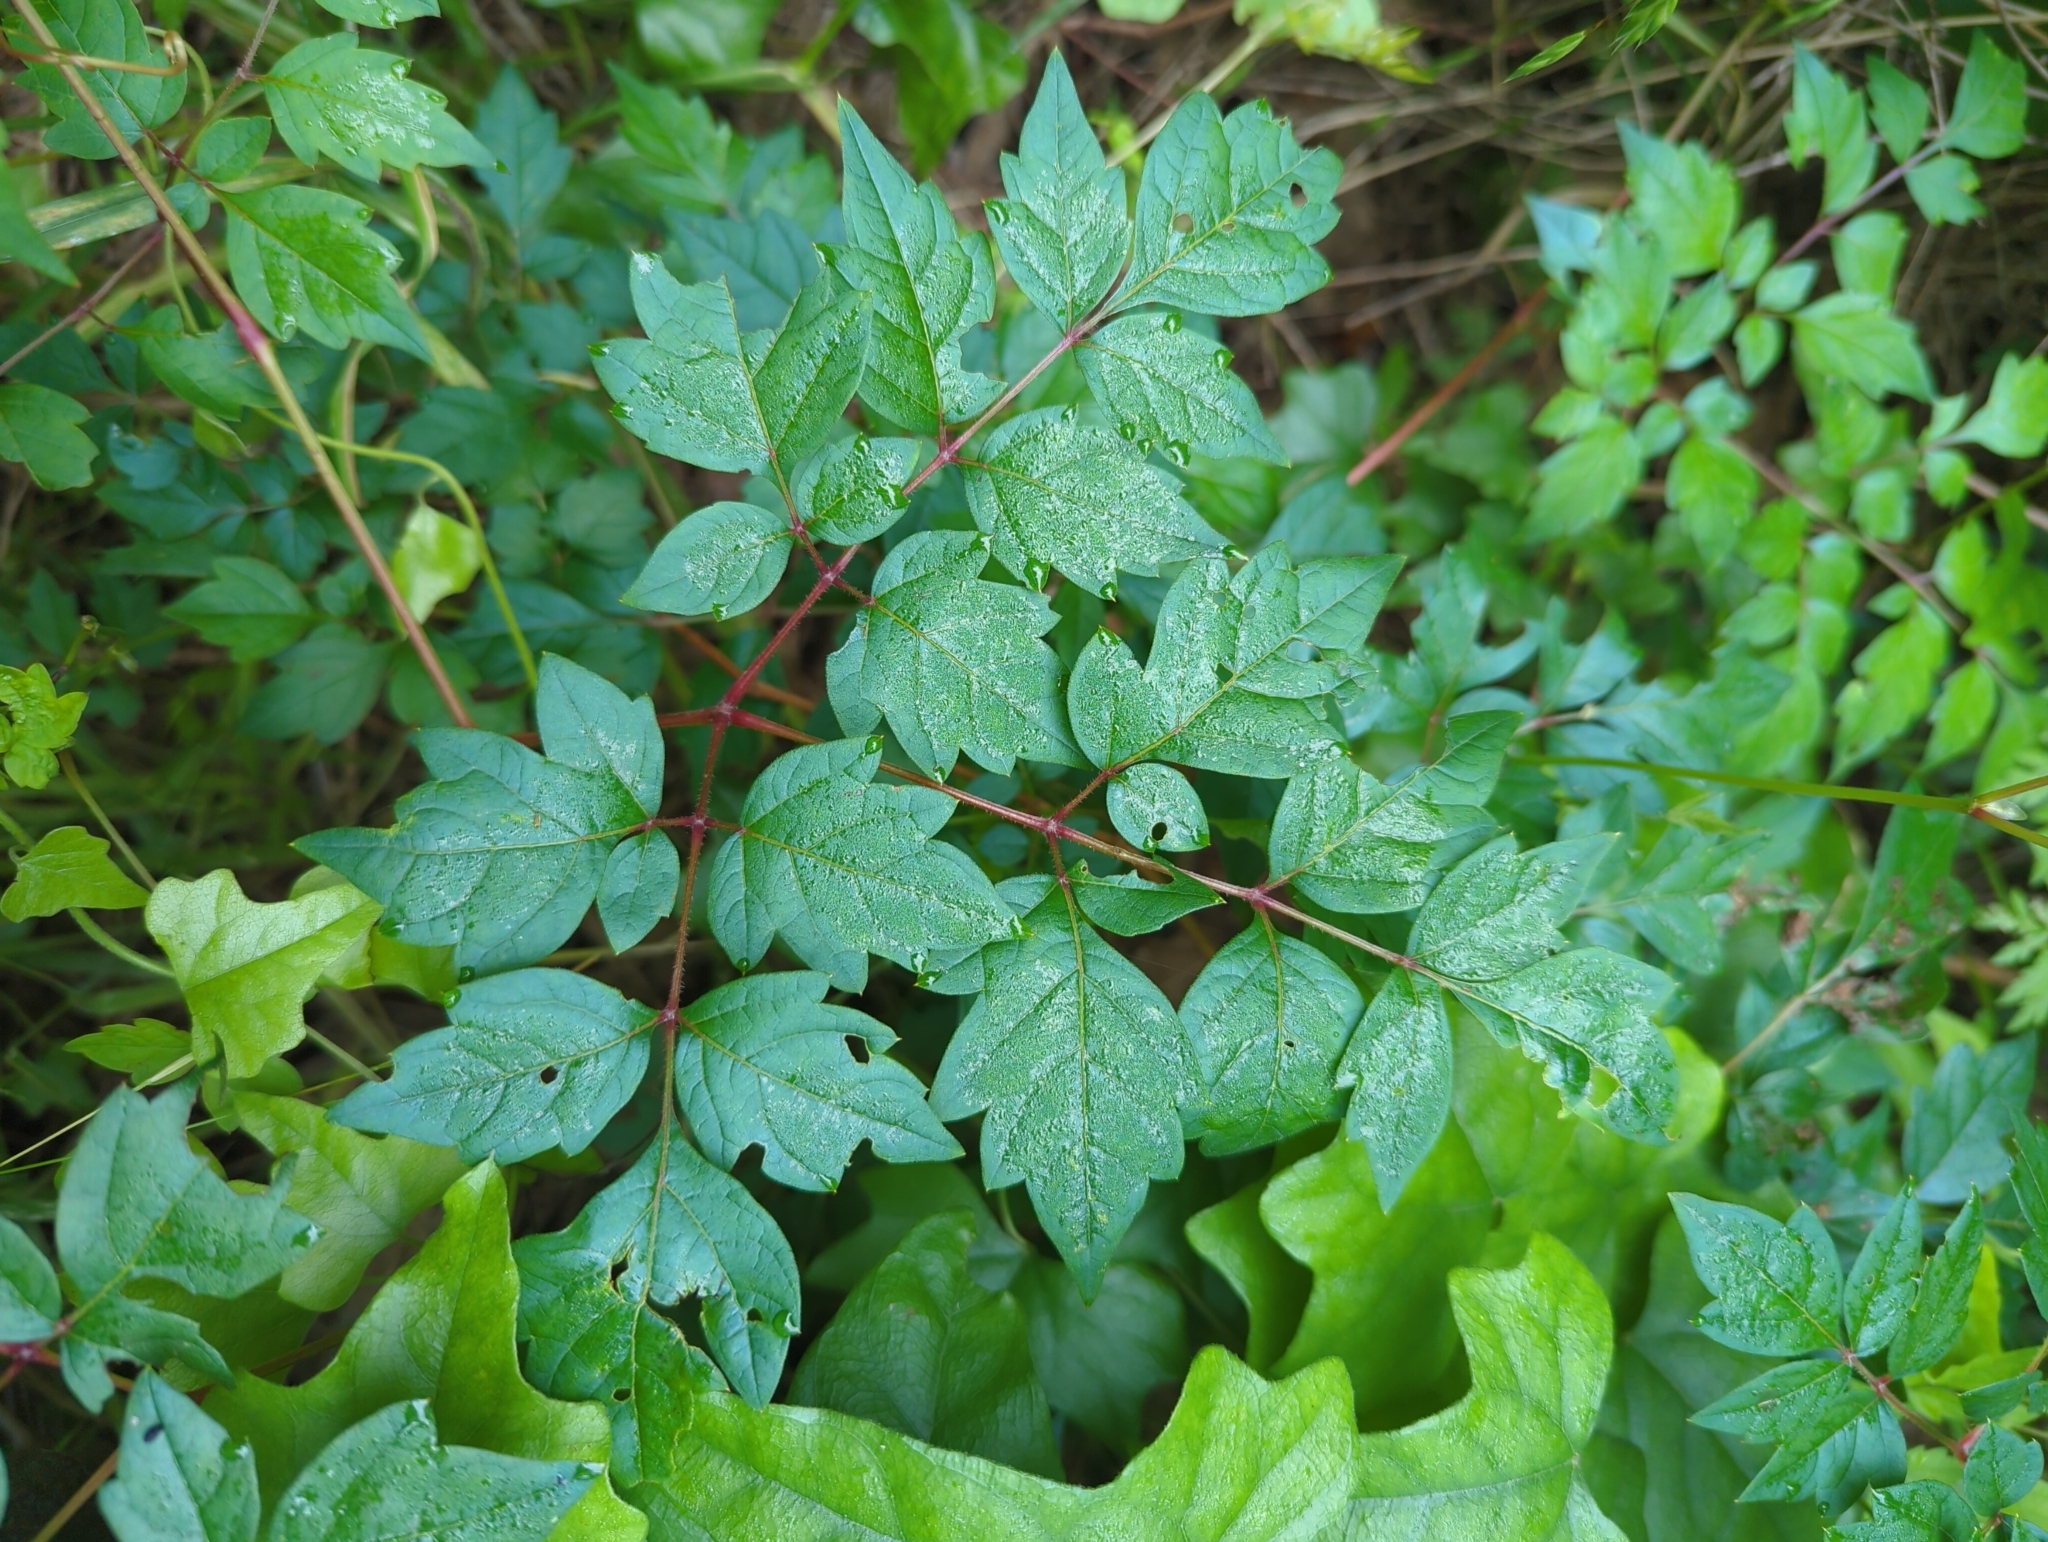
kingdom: Plantae
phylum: Tracheophyta
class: Magnoliopsida
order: Vitales
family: Vitaceae
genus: Nekemias
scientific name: Nekemias arborea
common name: Peppervine
